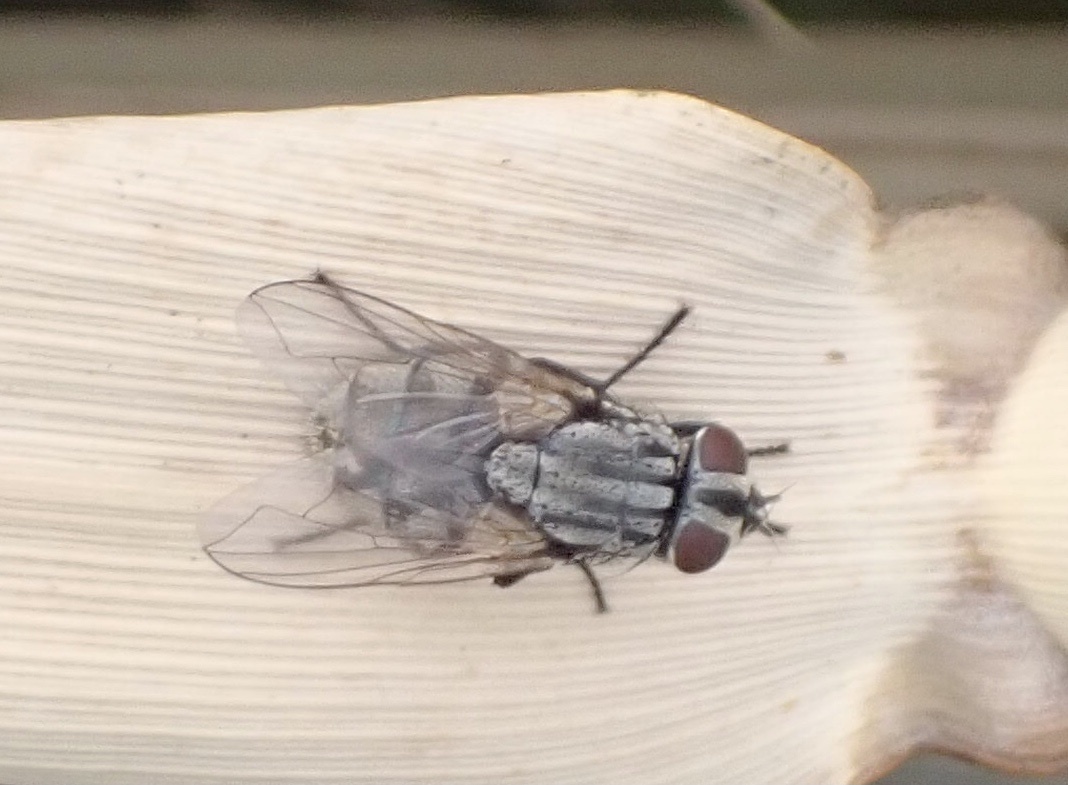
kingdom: Animalia
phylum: Arthropoda
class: Insecta
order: Diptera
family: Muscidae
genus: Musca
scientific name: Musca autumnalis
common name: Face fly
